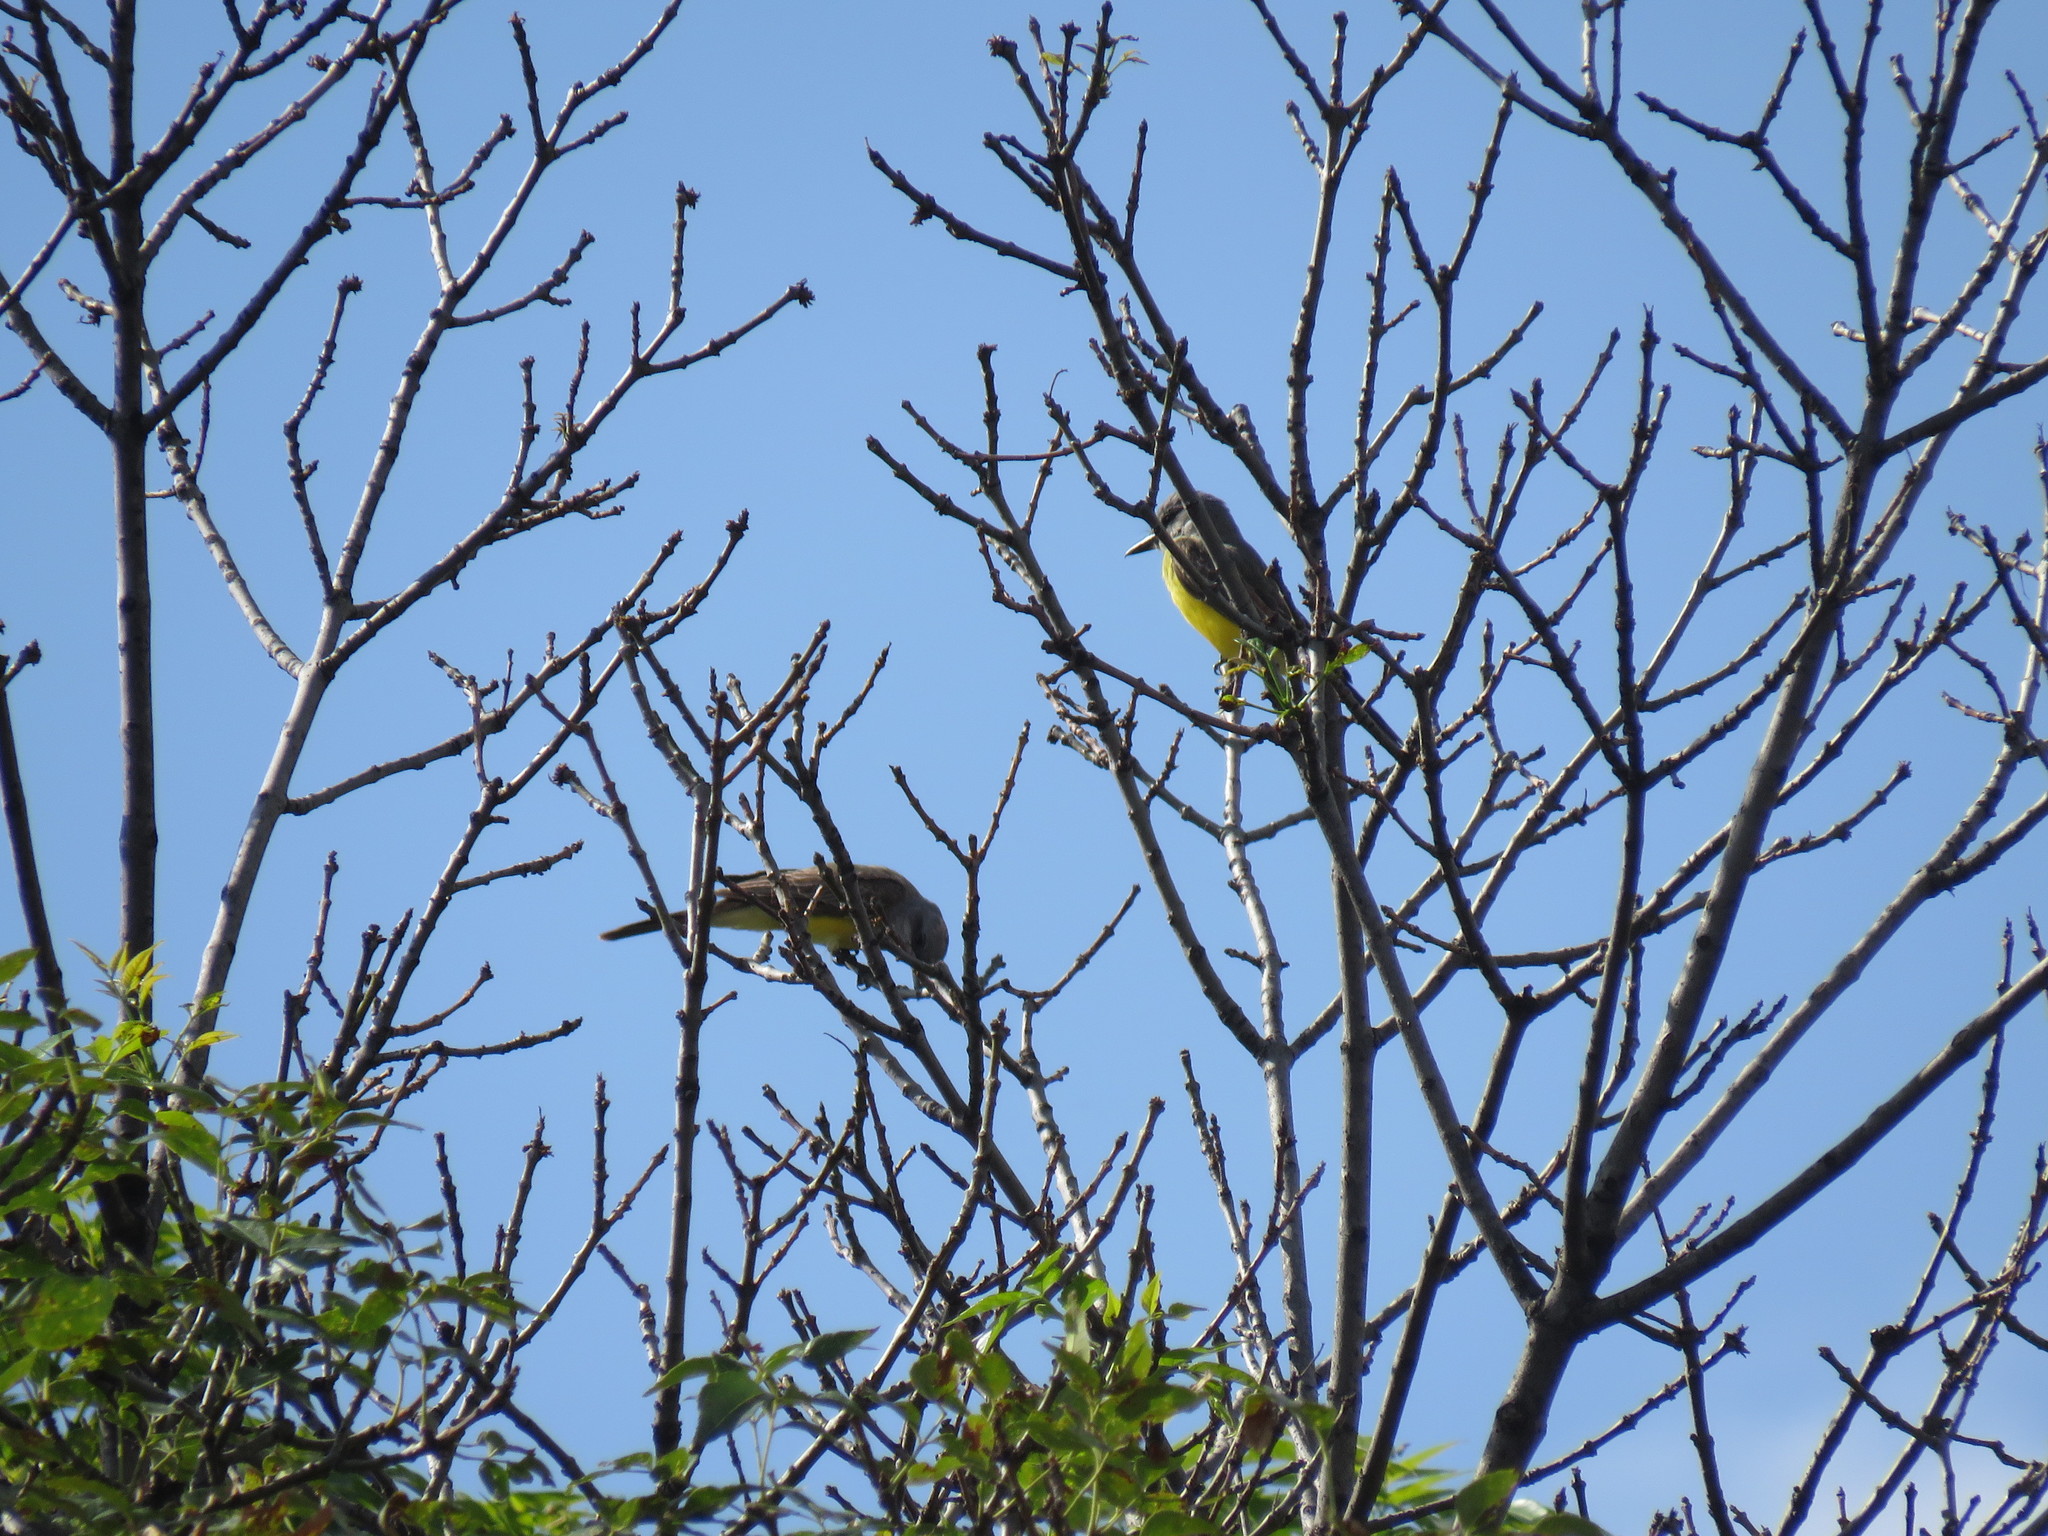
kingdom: Animalia
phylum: Chordata
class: Aves
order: Passeriformes
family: Tyrannidae
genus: Tyrannus
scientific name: Tyrannus melancholicus
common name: Tropical kingbird
